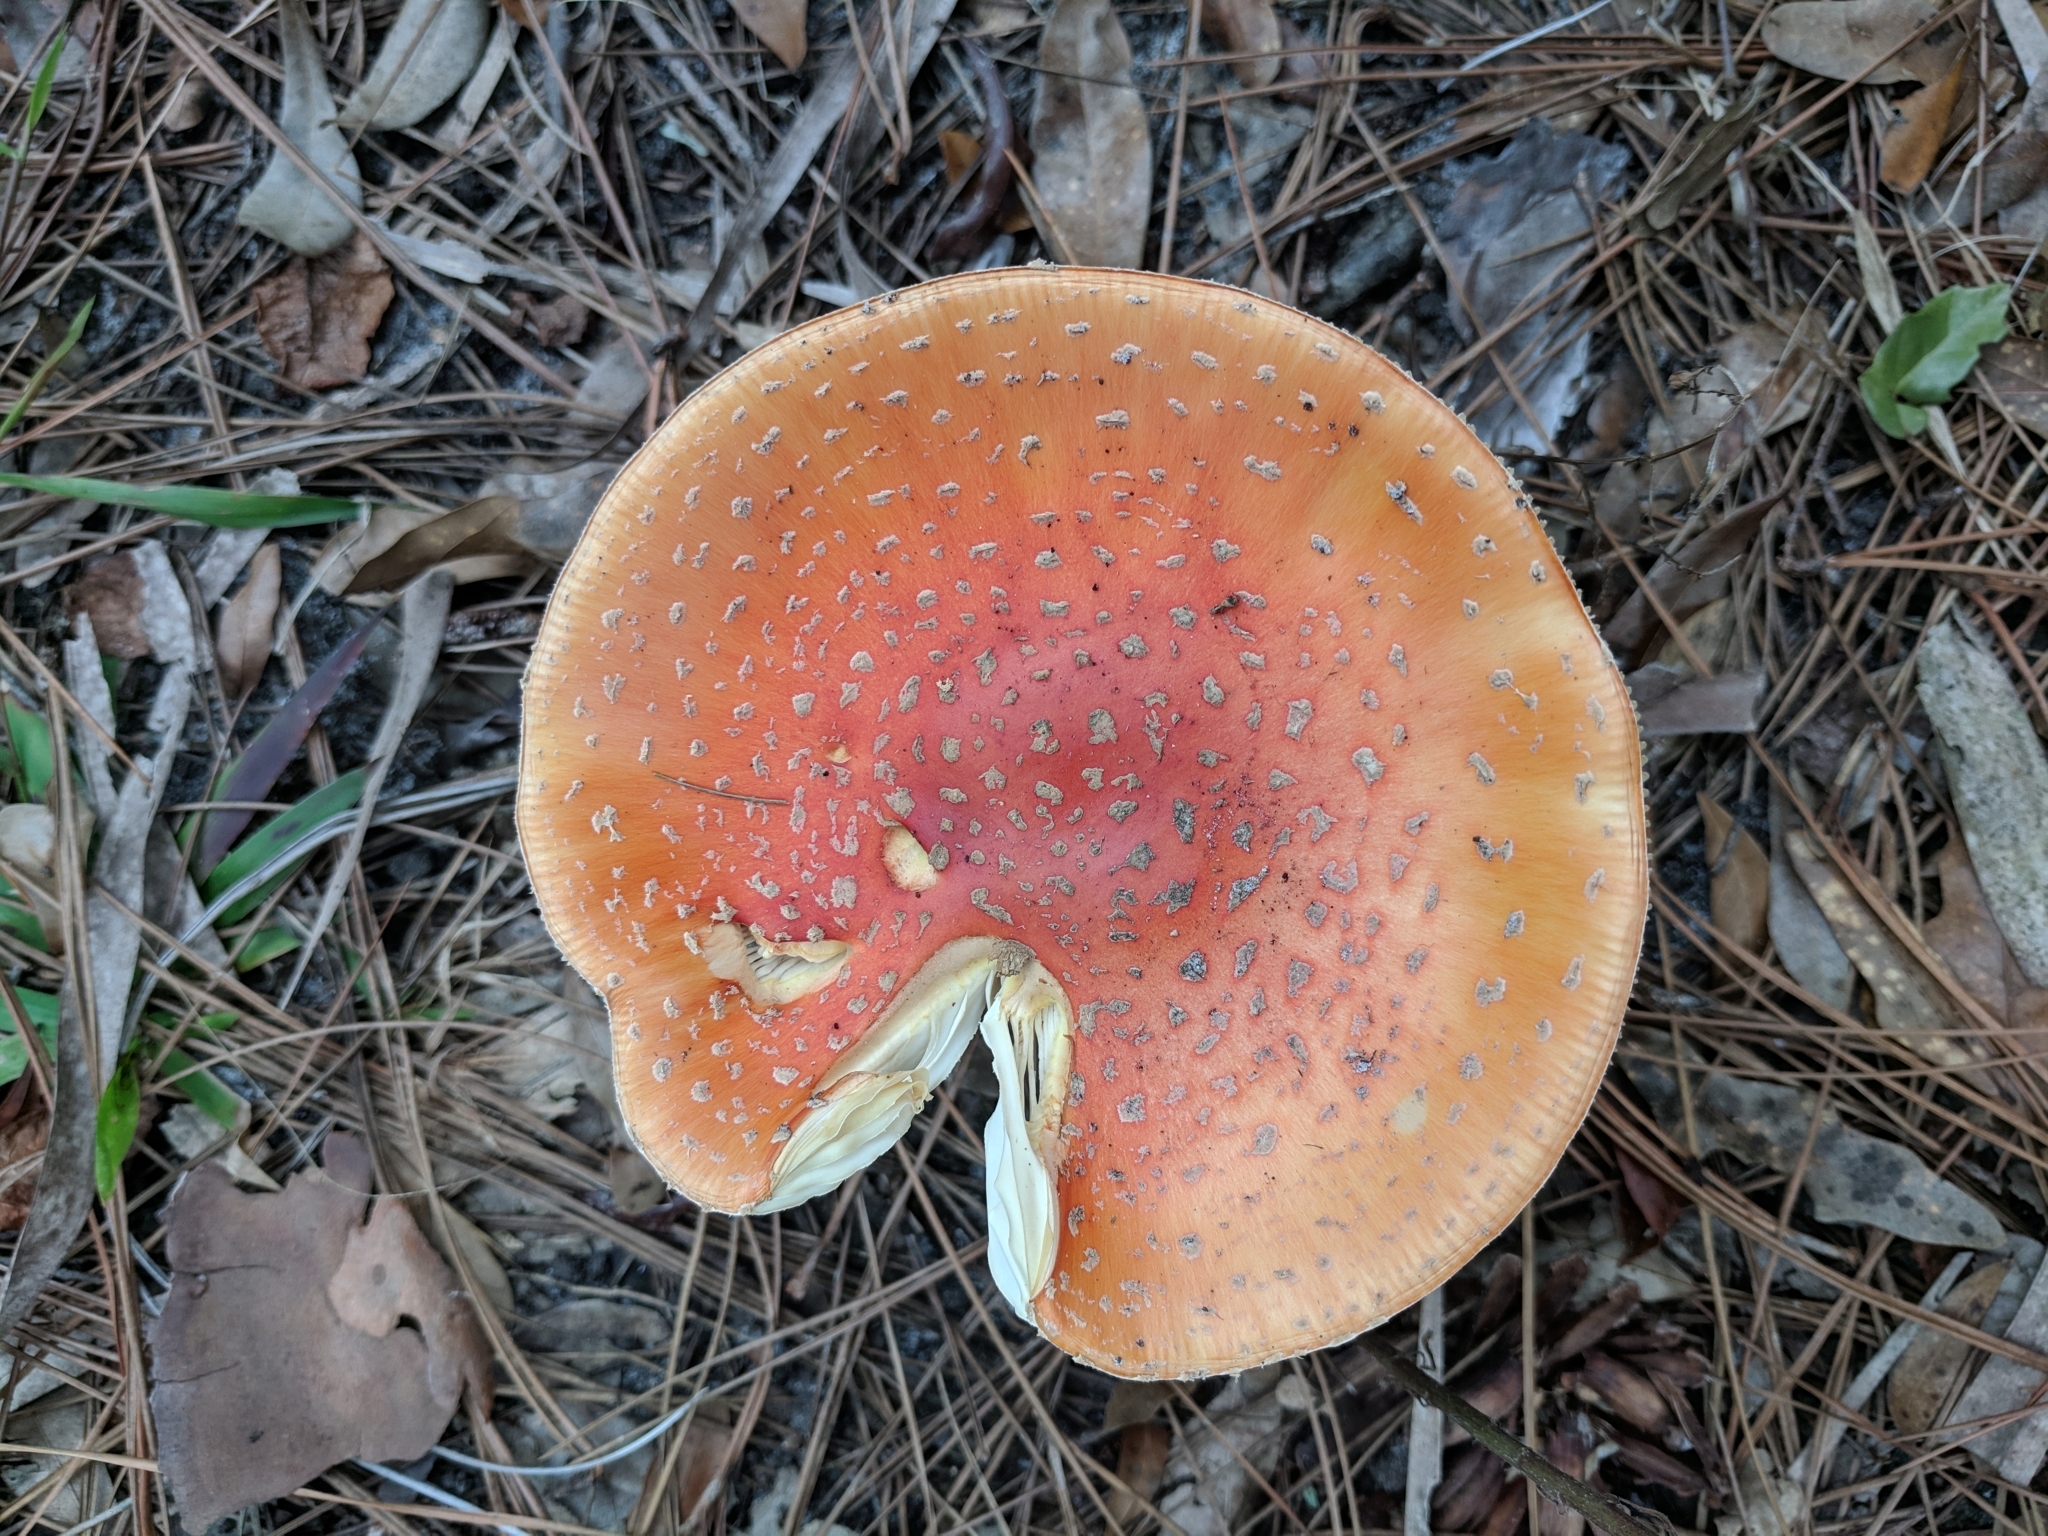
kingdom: Fungi
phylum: Basidiomycota
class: Agaricomycetes
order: Agaricales
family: Amanitaceae
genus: Amanita
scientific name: Amanita persicina
